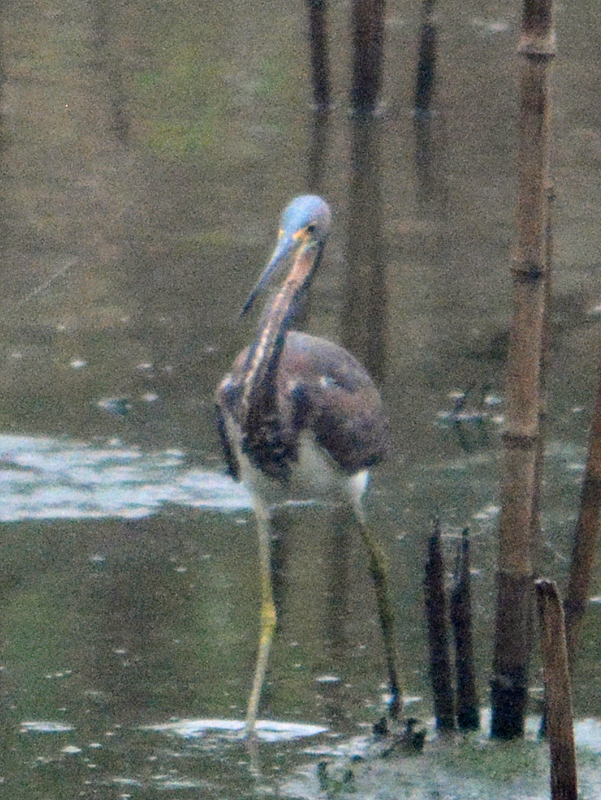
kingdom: Animalia
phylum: Chordata
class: Aves
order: Pelecaniformes
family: Ardeidae
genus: Egretta
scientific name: Egretta tricolor
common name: Tricolored heron
